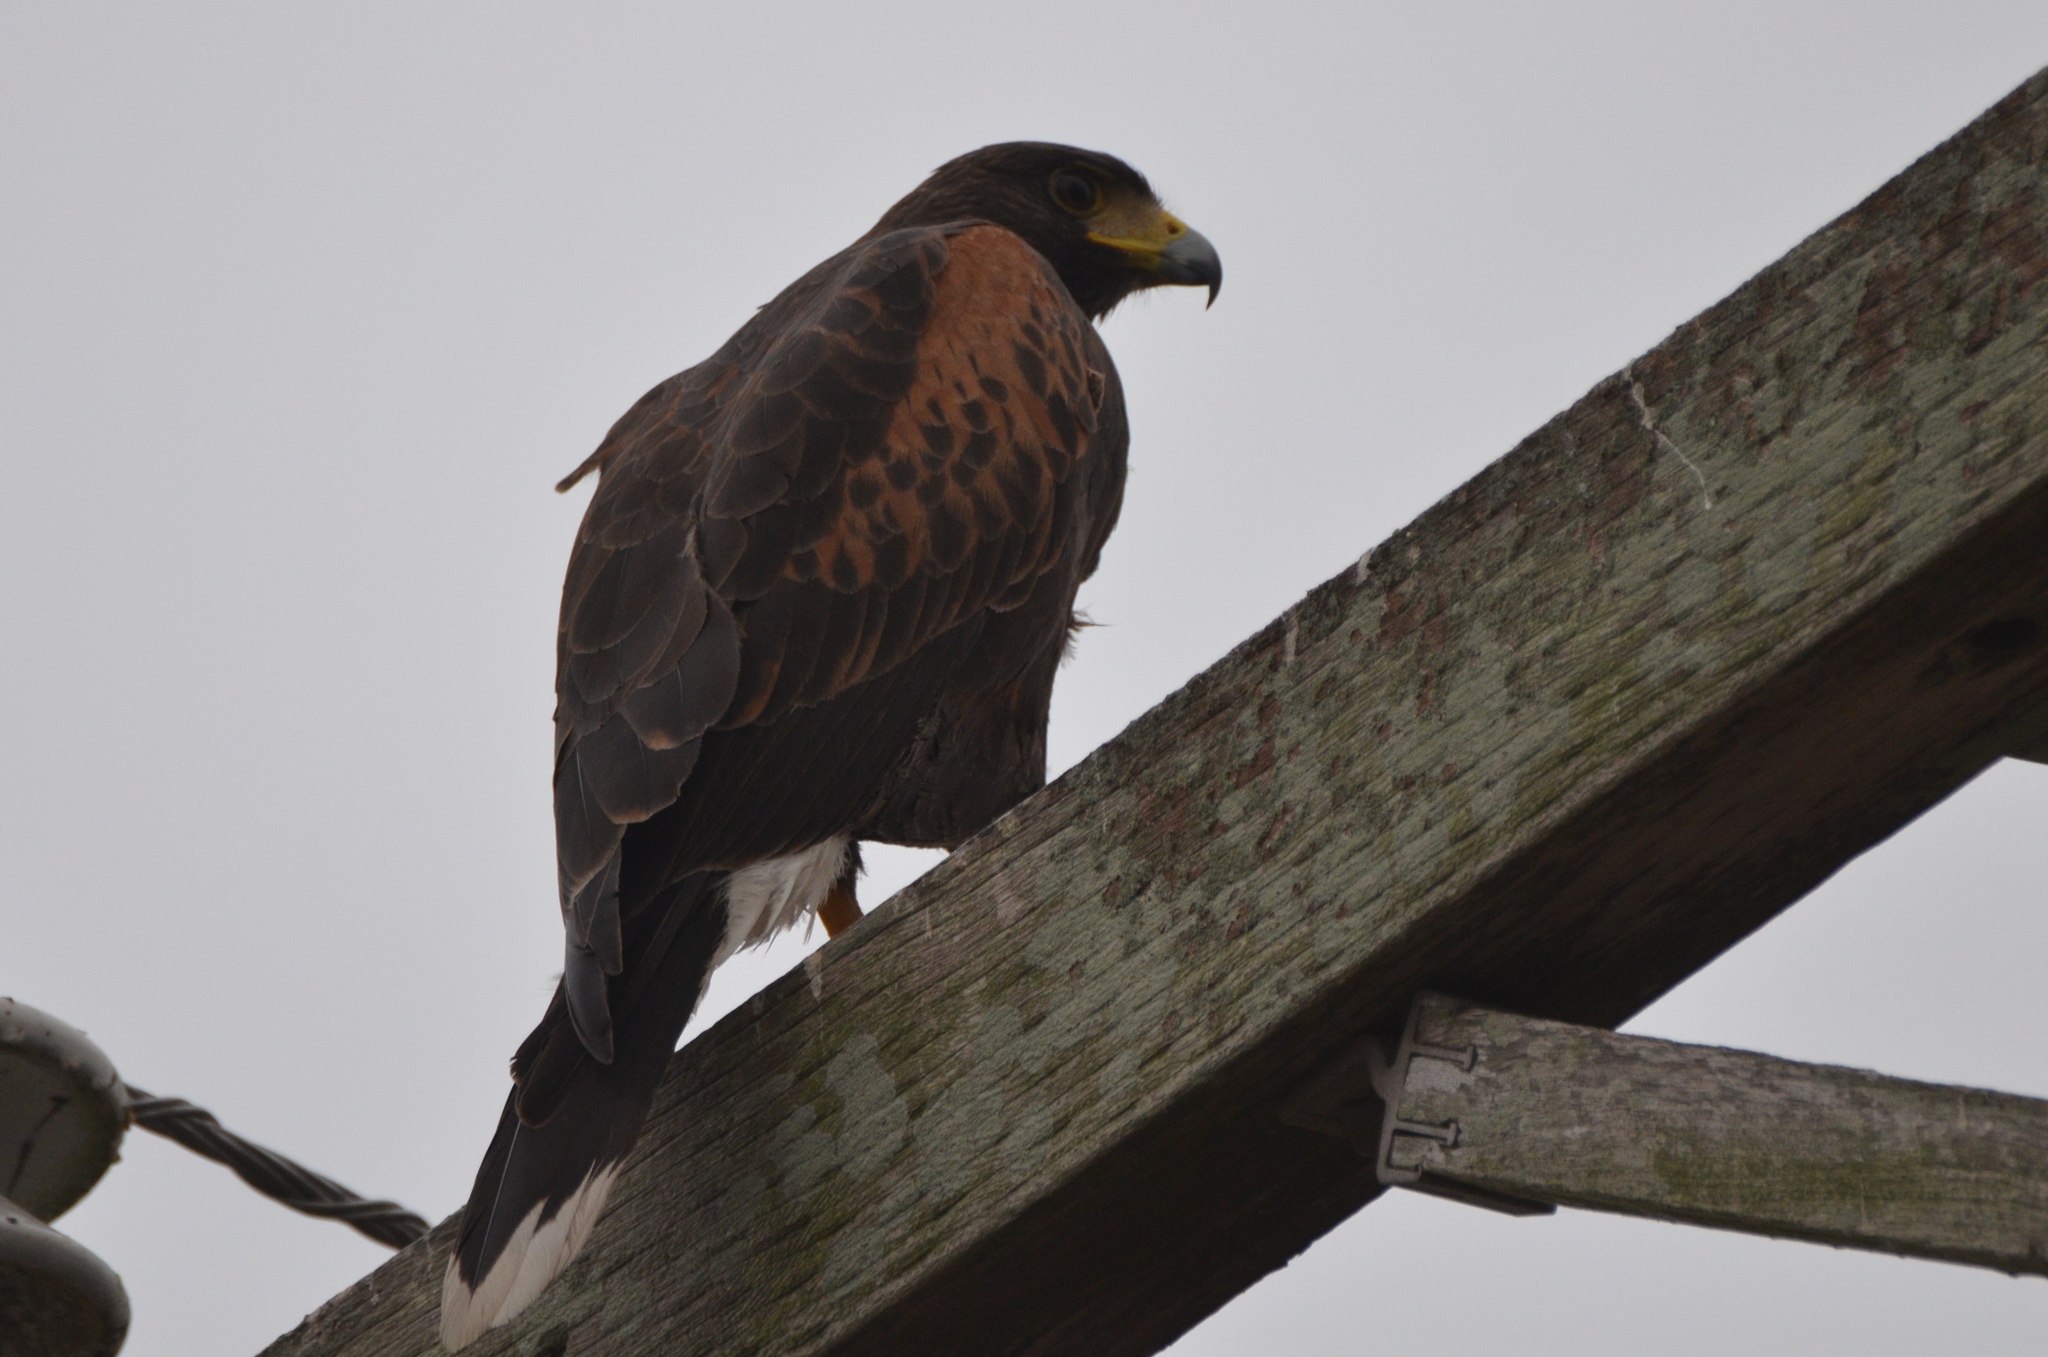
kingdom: Animalia
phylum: Chordata
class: Aves
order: Accipitriformes
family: Accipitridae
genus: Parabuteo
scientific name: Parabuteo unicinctus
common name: Harris's hawk
